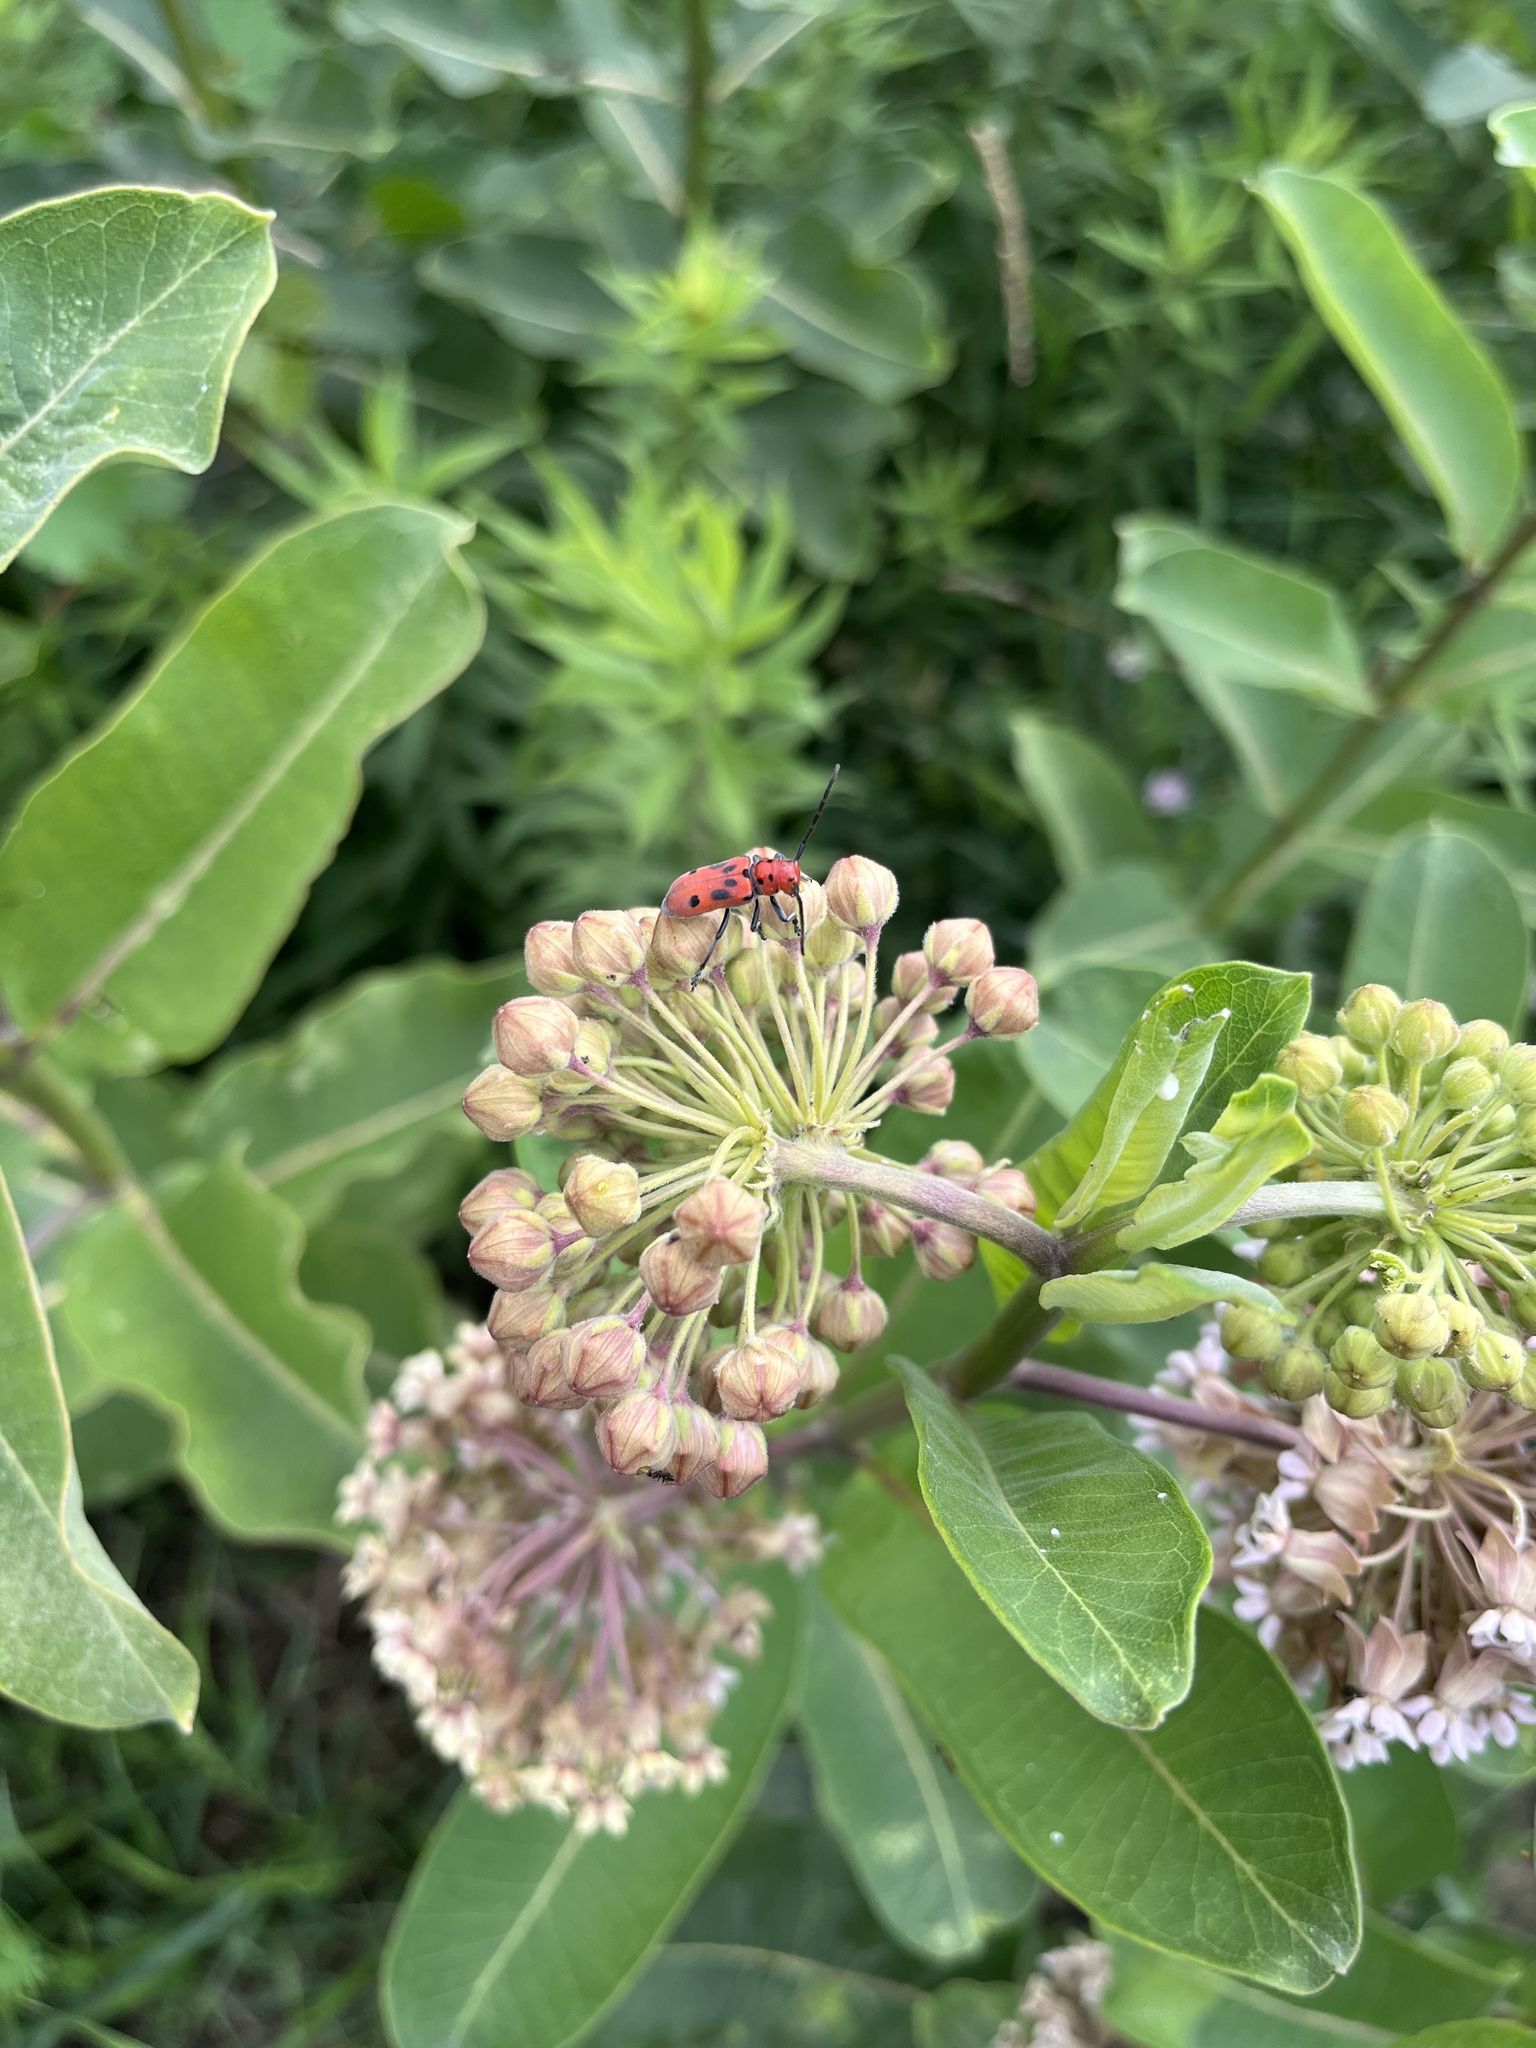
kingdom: Animalia
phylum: Arthropoda
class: Insecta
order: Coleoptera
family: Cerambycidae
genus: Tetraopes
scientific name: Tetraopes tetrophthalmus
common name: Red milkweed beetle
